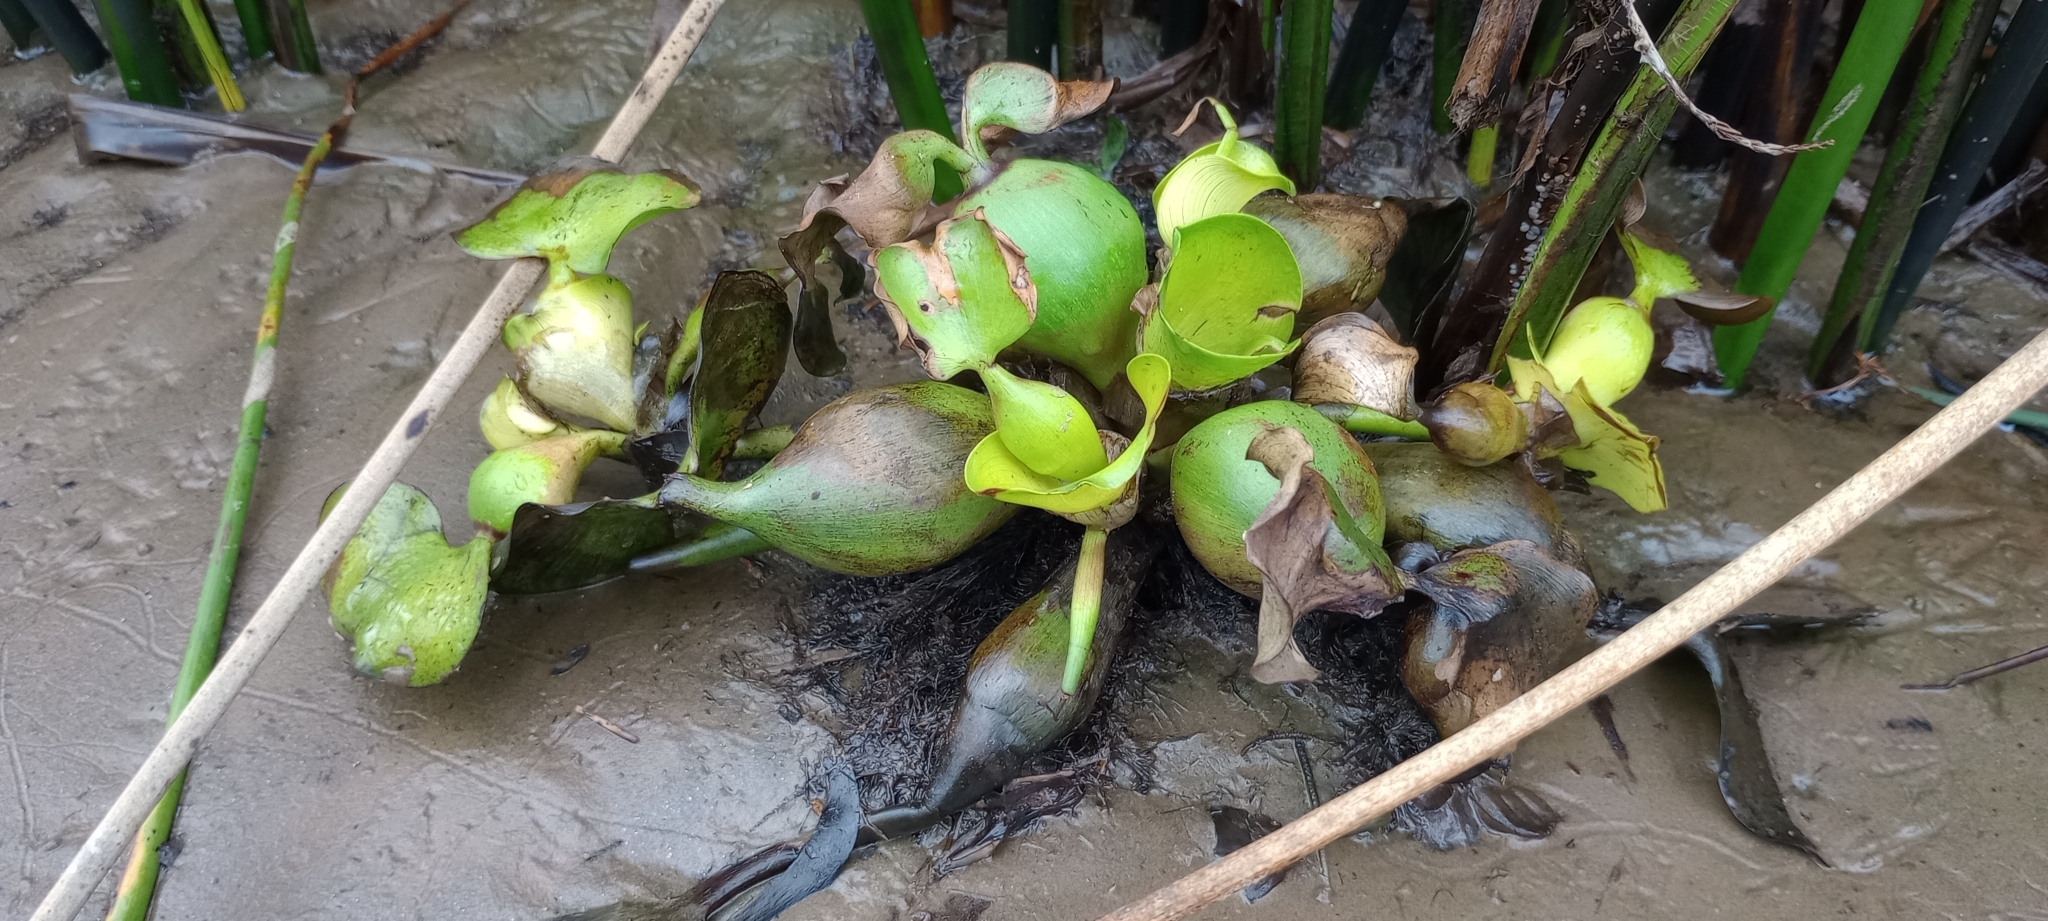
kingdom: Plantae
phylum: Tracheophyta
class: Liliopsida
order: Commelinales
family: Pontederiaceae
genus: Pontederia
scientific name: Pontederia crassipes
